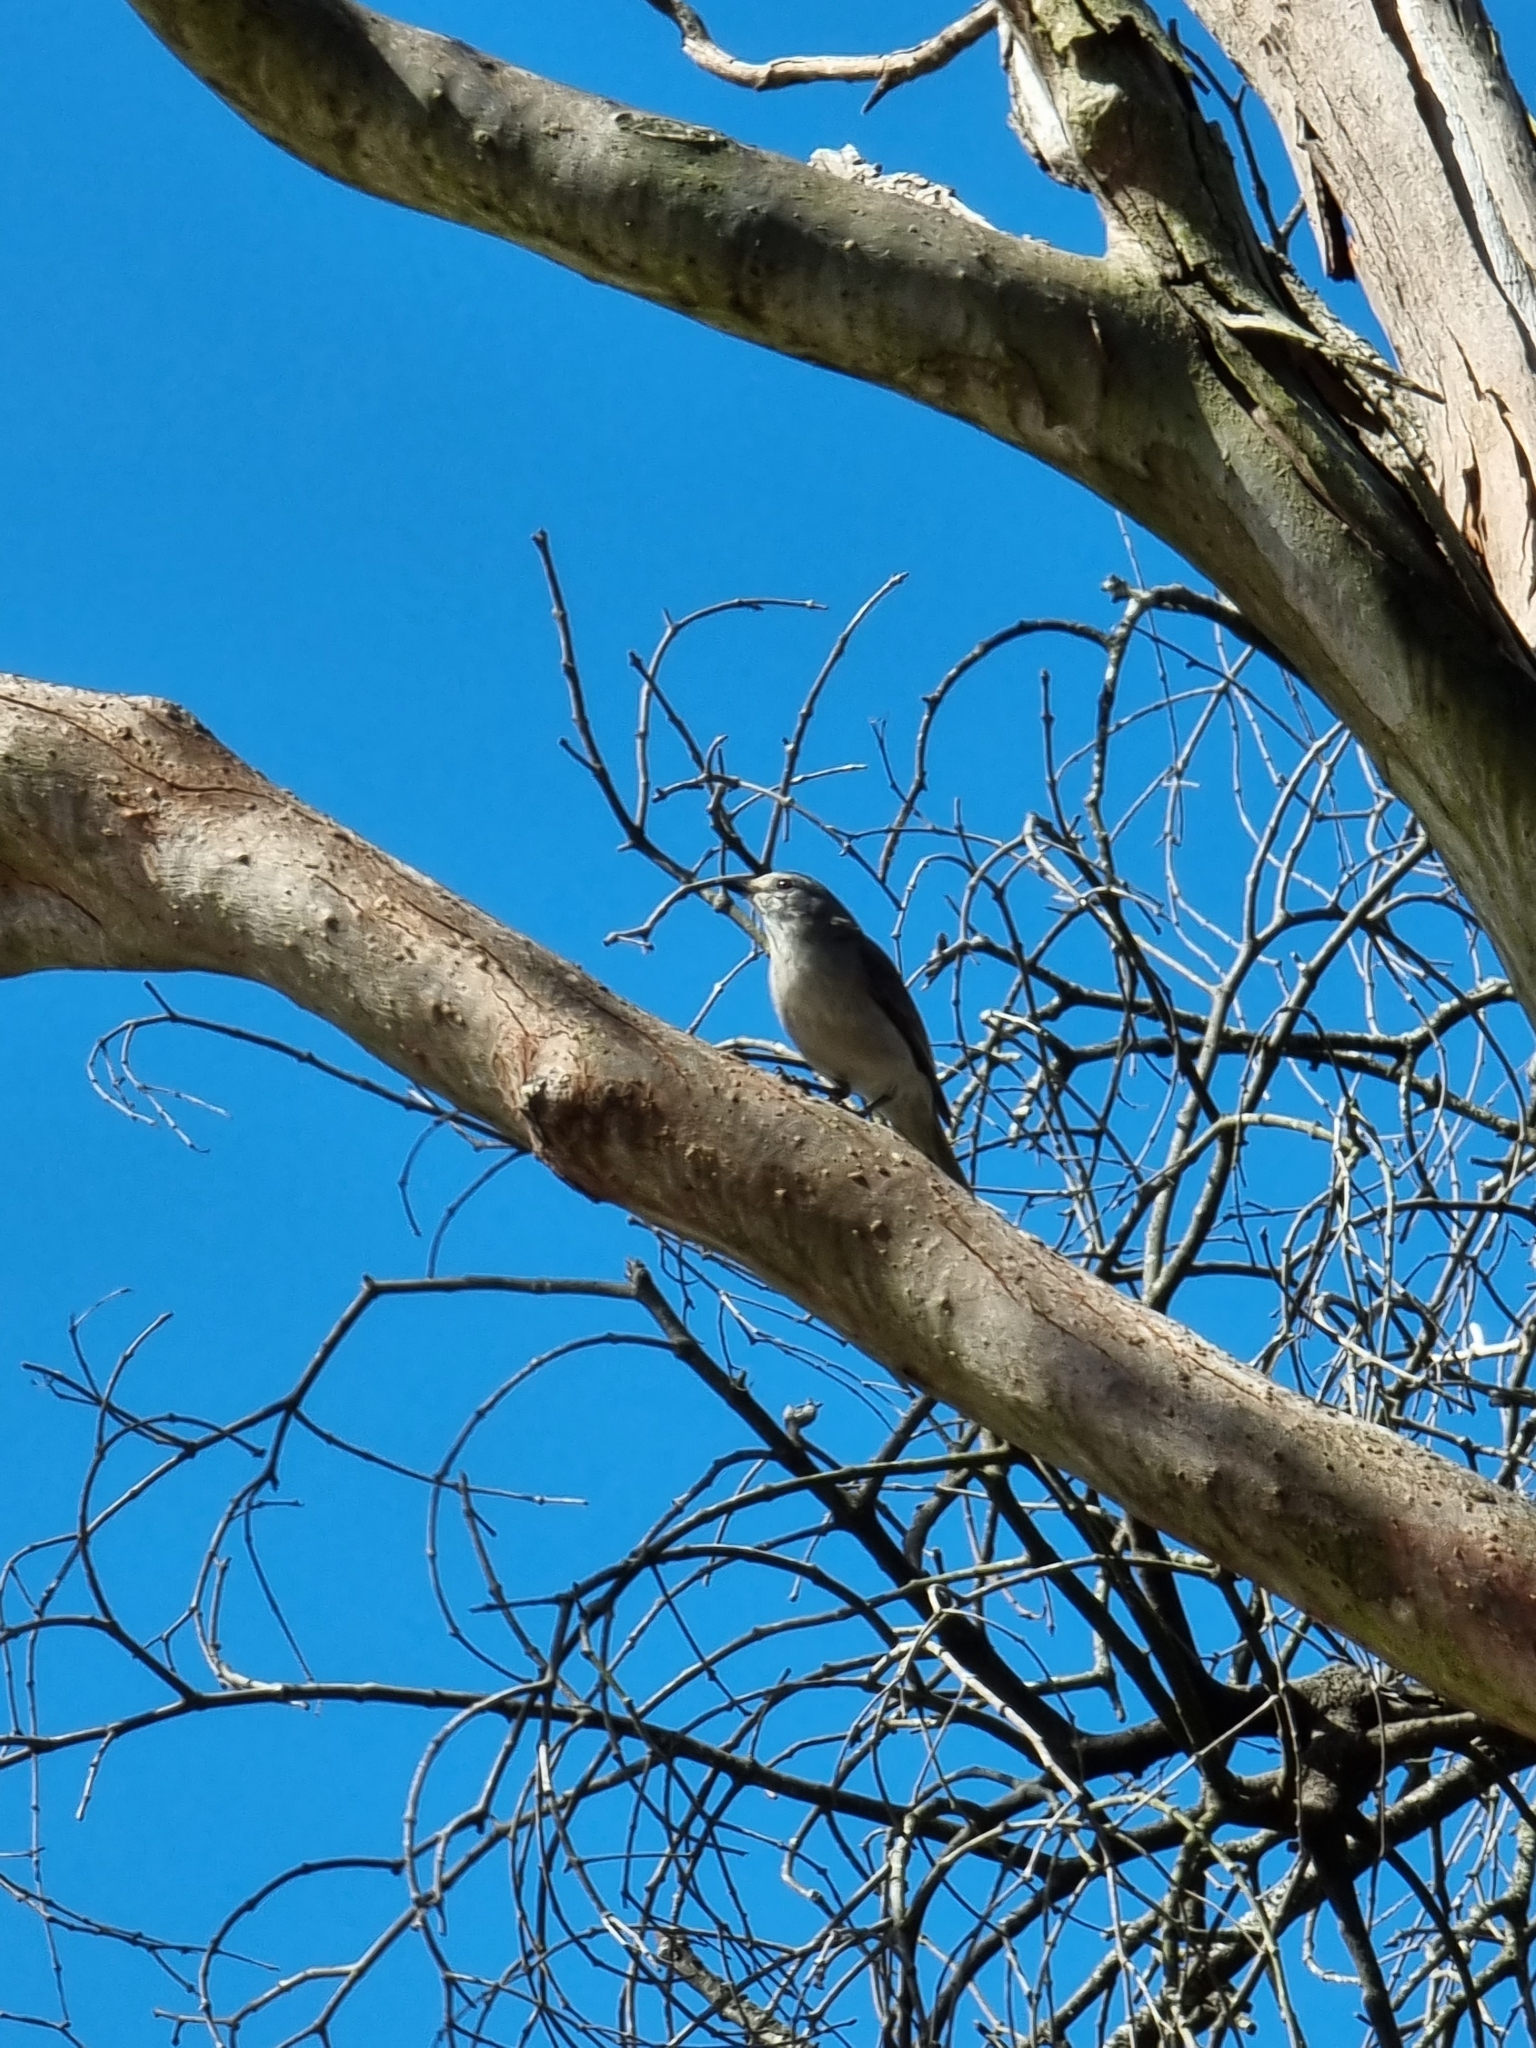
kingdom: Animalia
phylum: Chordata
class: Aves
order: Passeriformes
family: Pachycephalidae
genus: Colluricincla
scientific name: Colluricincla harmonica
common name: Grey shrikethrush
